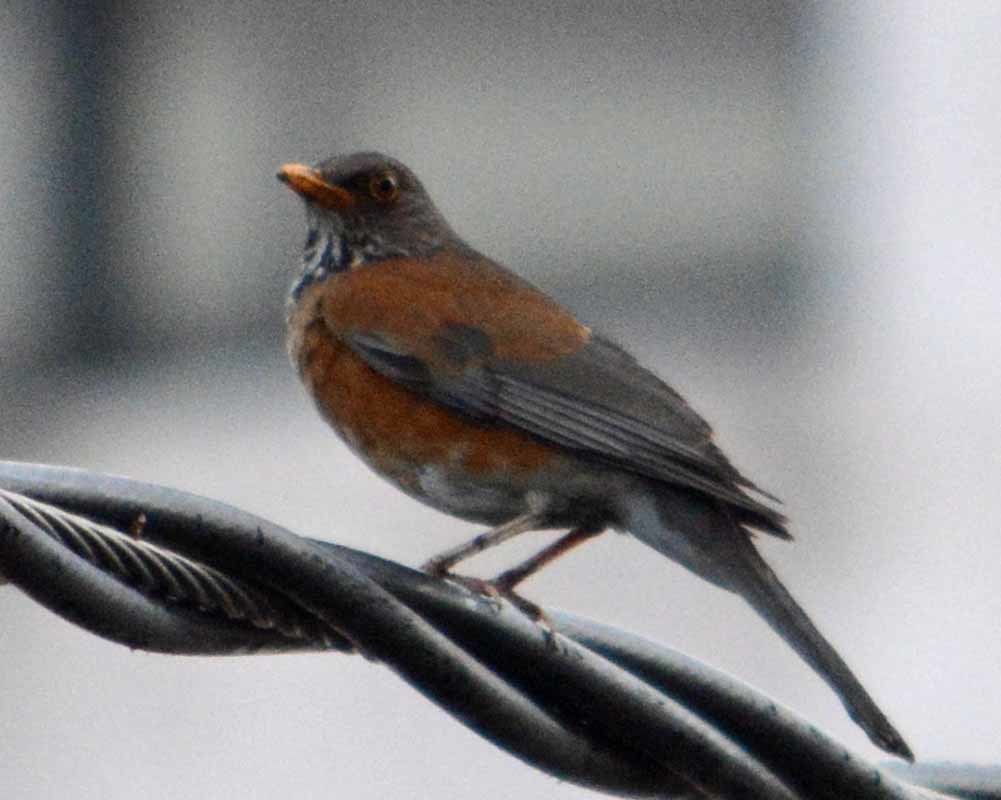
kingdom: Animalia
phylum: Chordata
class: Aves
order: Passeriformes
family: Turdidae
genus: Turdus
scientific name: Turdus rufopalliatus
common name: Rufous-backed robin
